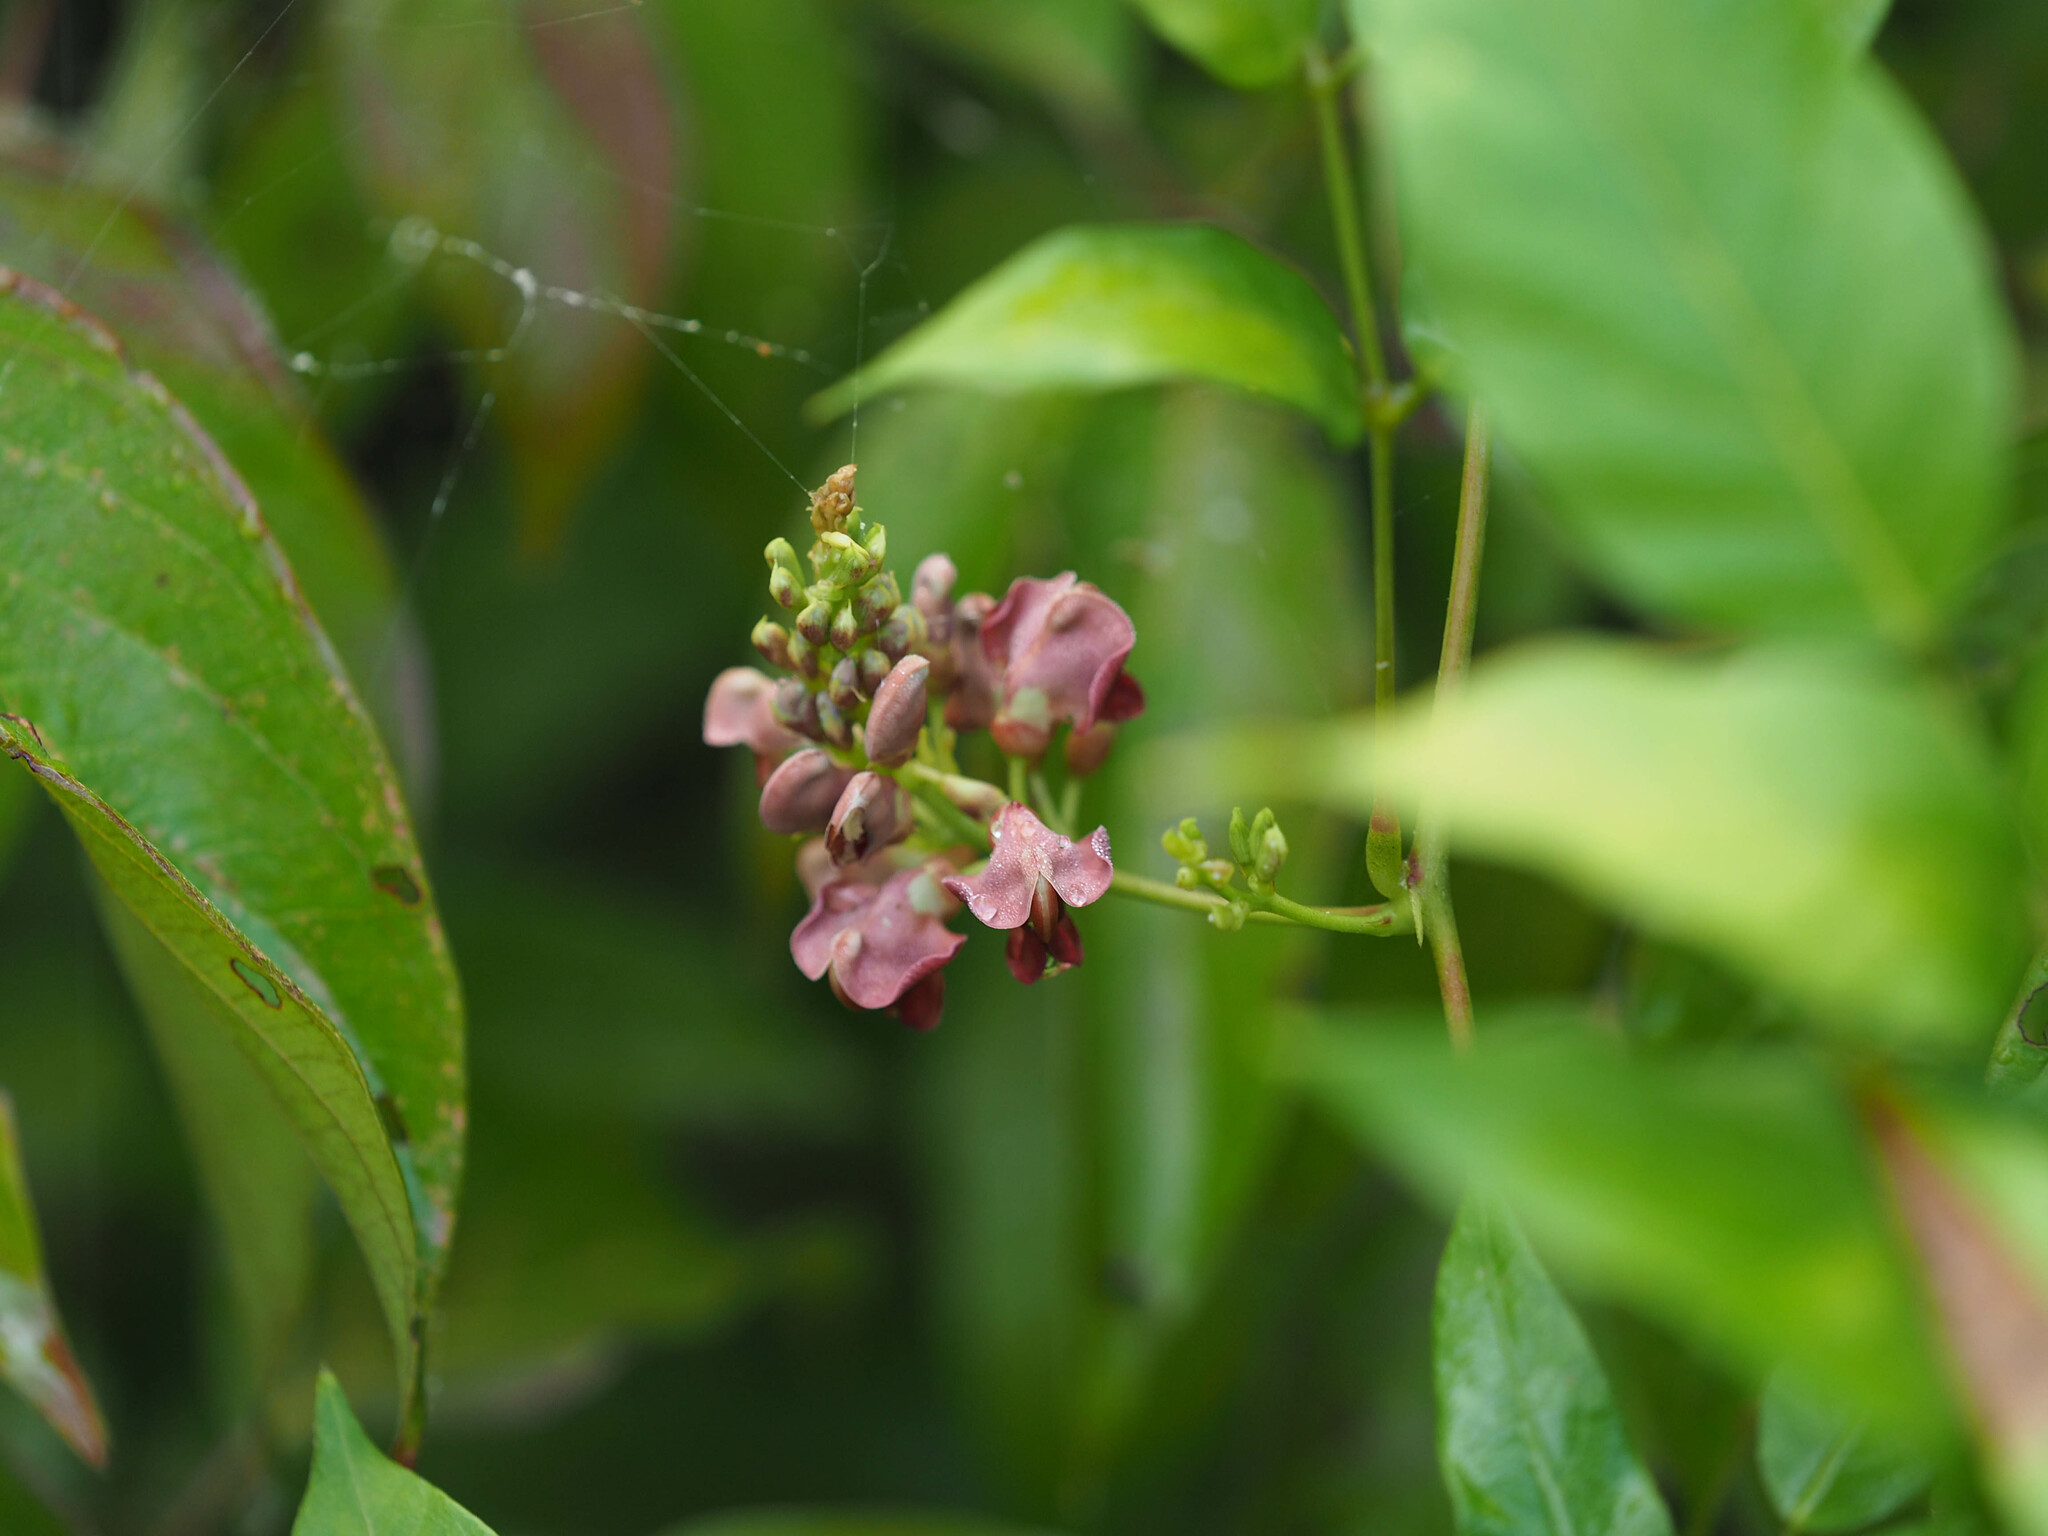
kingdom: Plantae
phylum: Tracheophyta
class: Magnoliopsida
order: Fabales
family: Fabaceae
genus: Apios
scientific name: Apios americana
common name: American potato-bean
